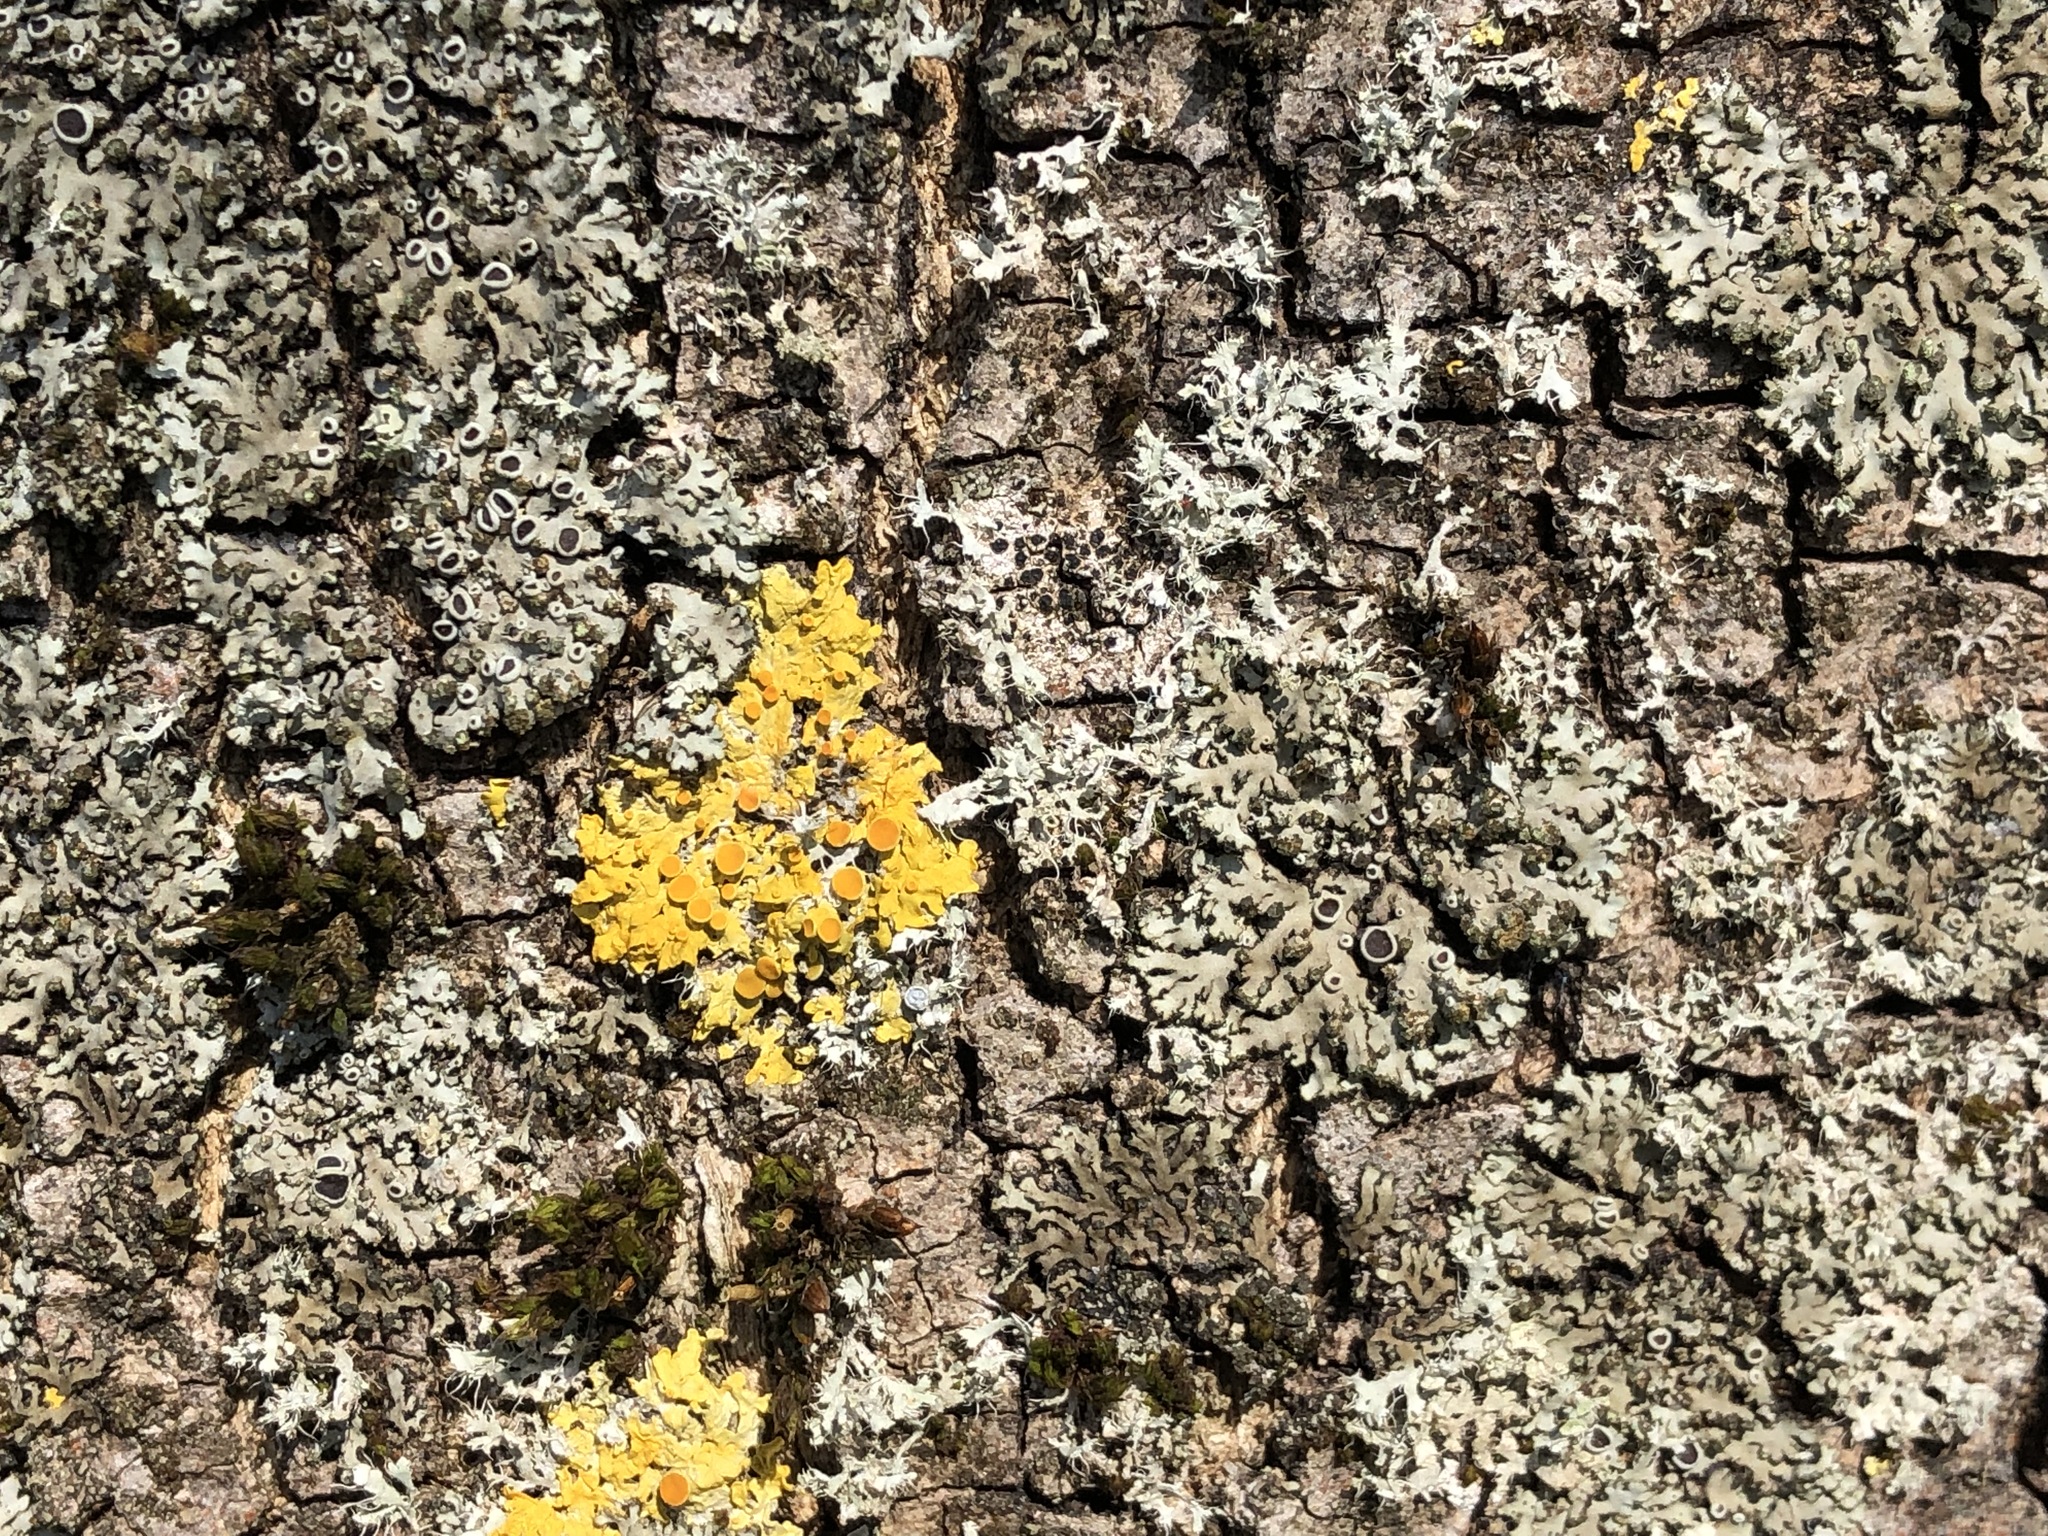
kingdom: Fungi
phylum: Ascomycota
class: Lecanoromycetes
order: Teloschistales
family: Teloschistaceae
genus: Xanthoria
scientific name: Xanthoria parietina
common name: Common orange lichen
